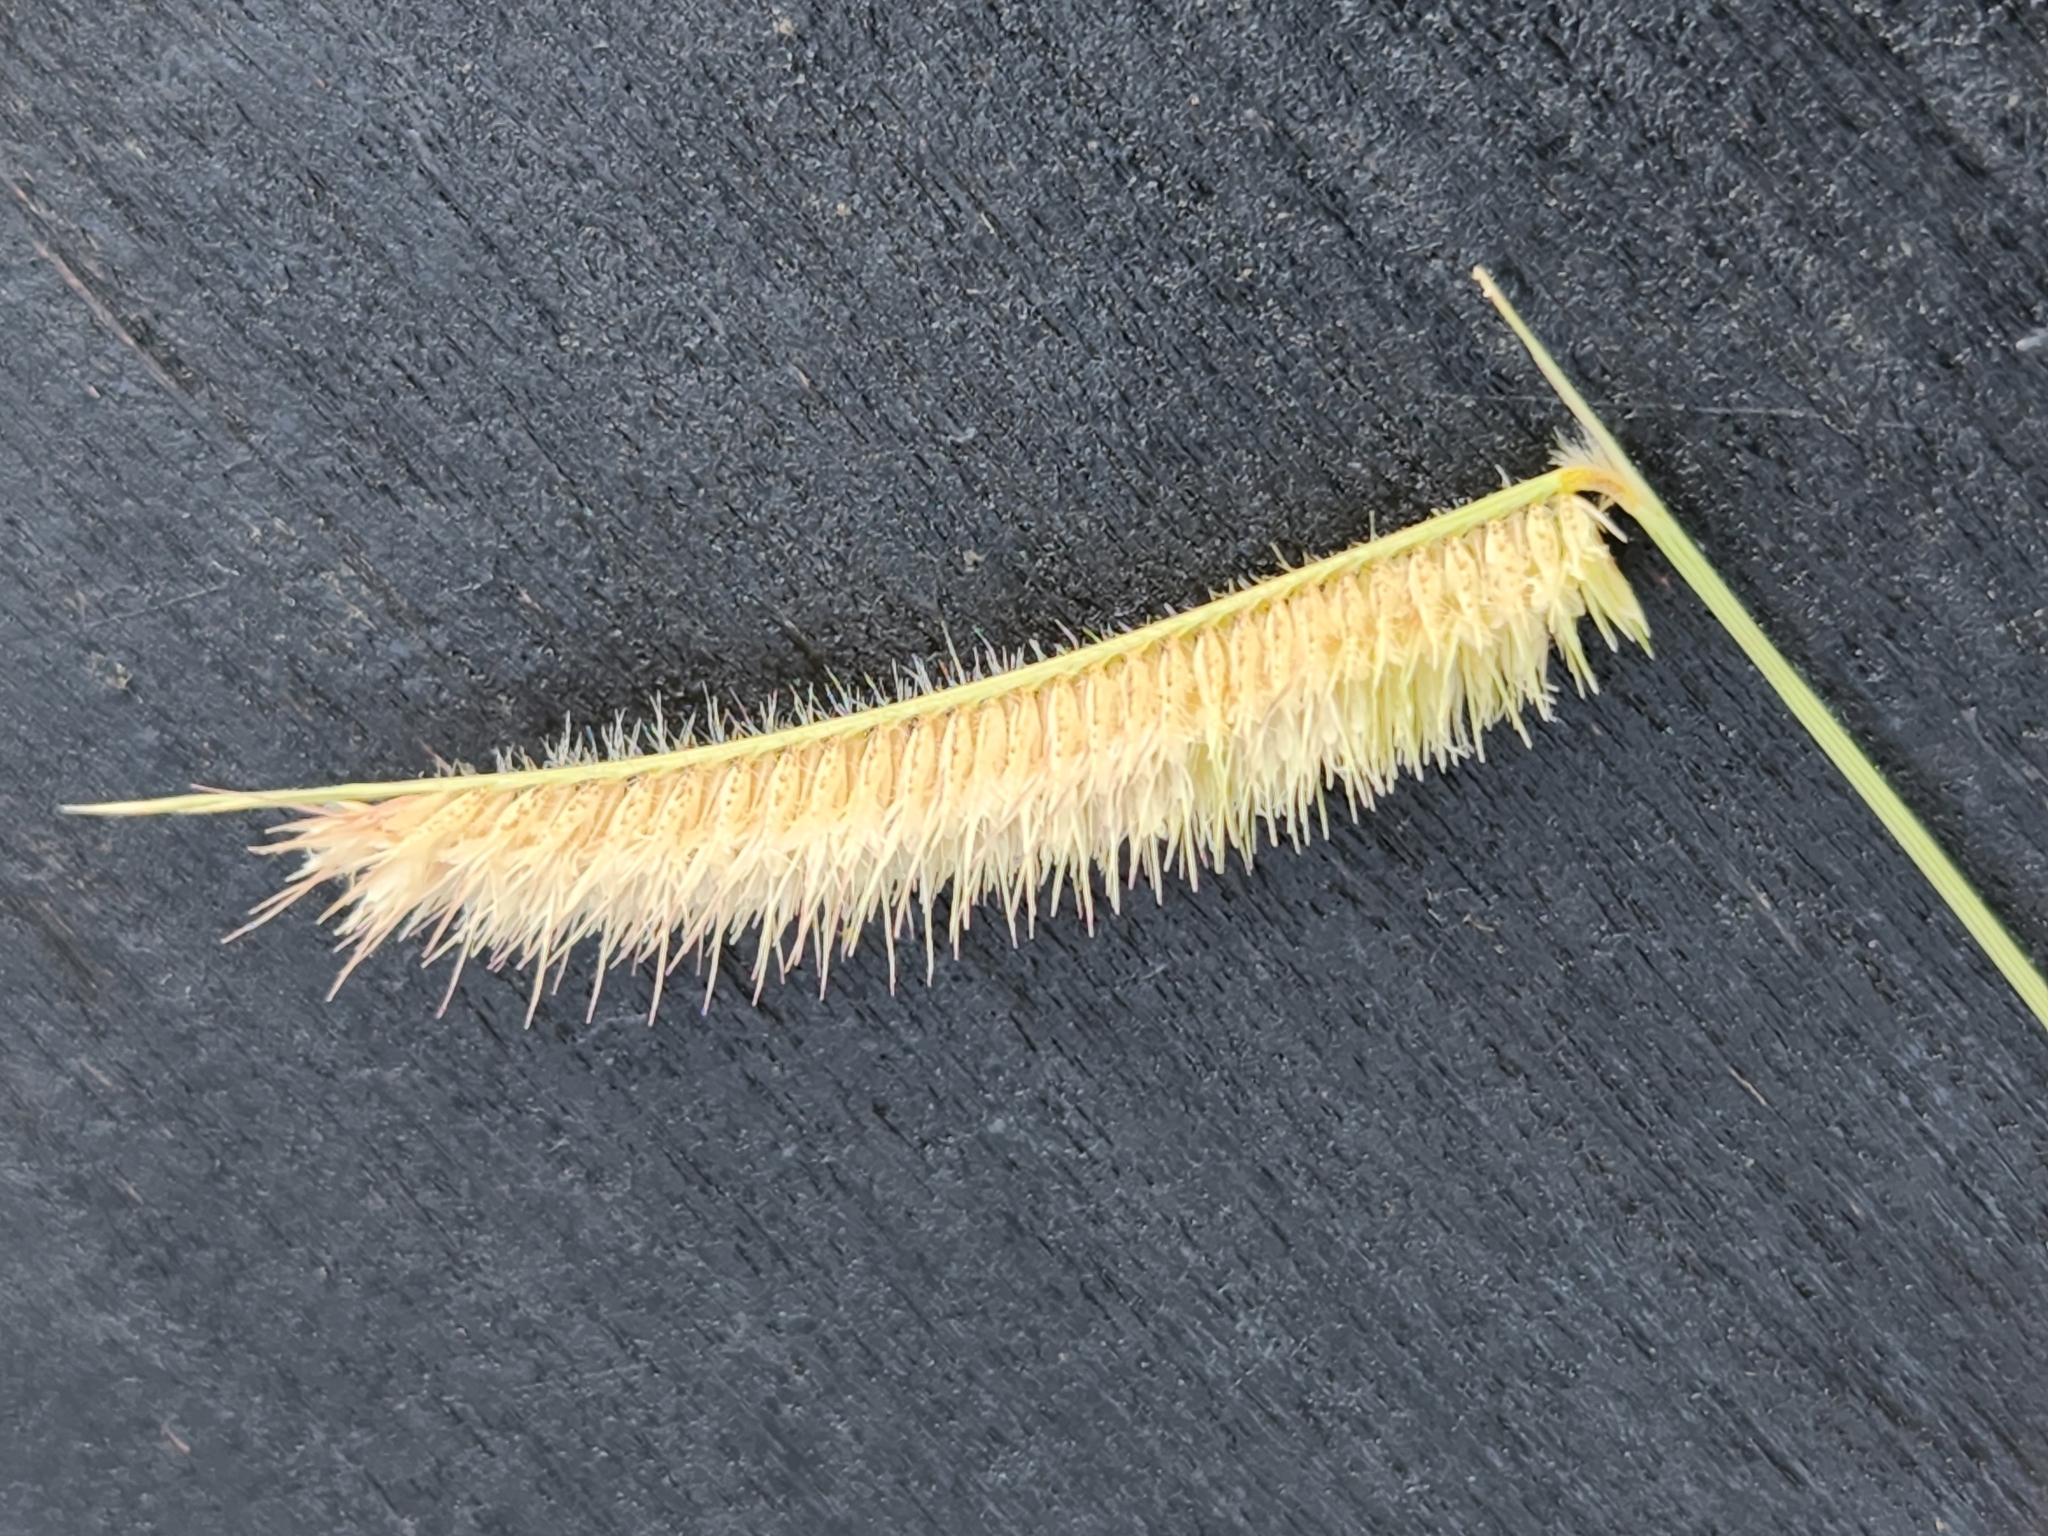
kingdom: Plantae
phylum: Tracheophyta
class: Liliopsida
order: Poales
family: Poaceae
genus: Bouteloua
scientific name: Bouteloua hirsuta
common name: Hairy grama
